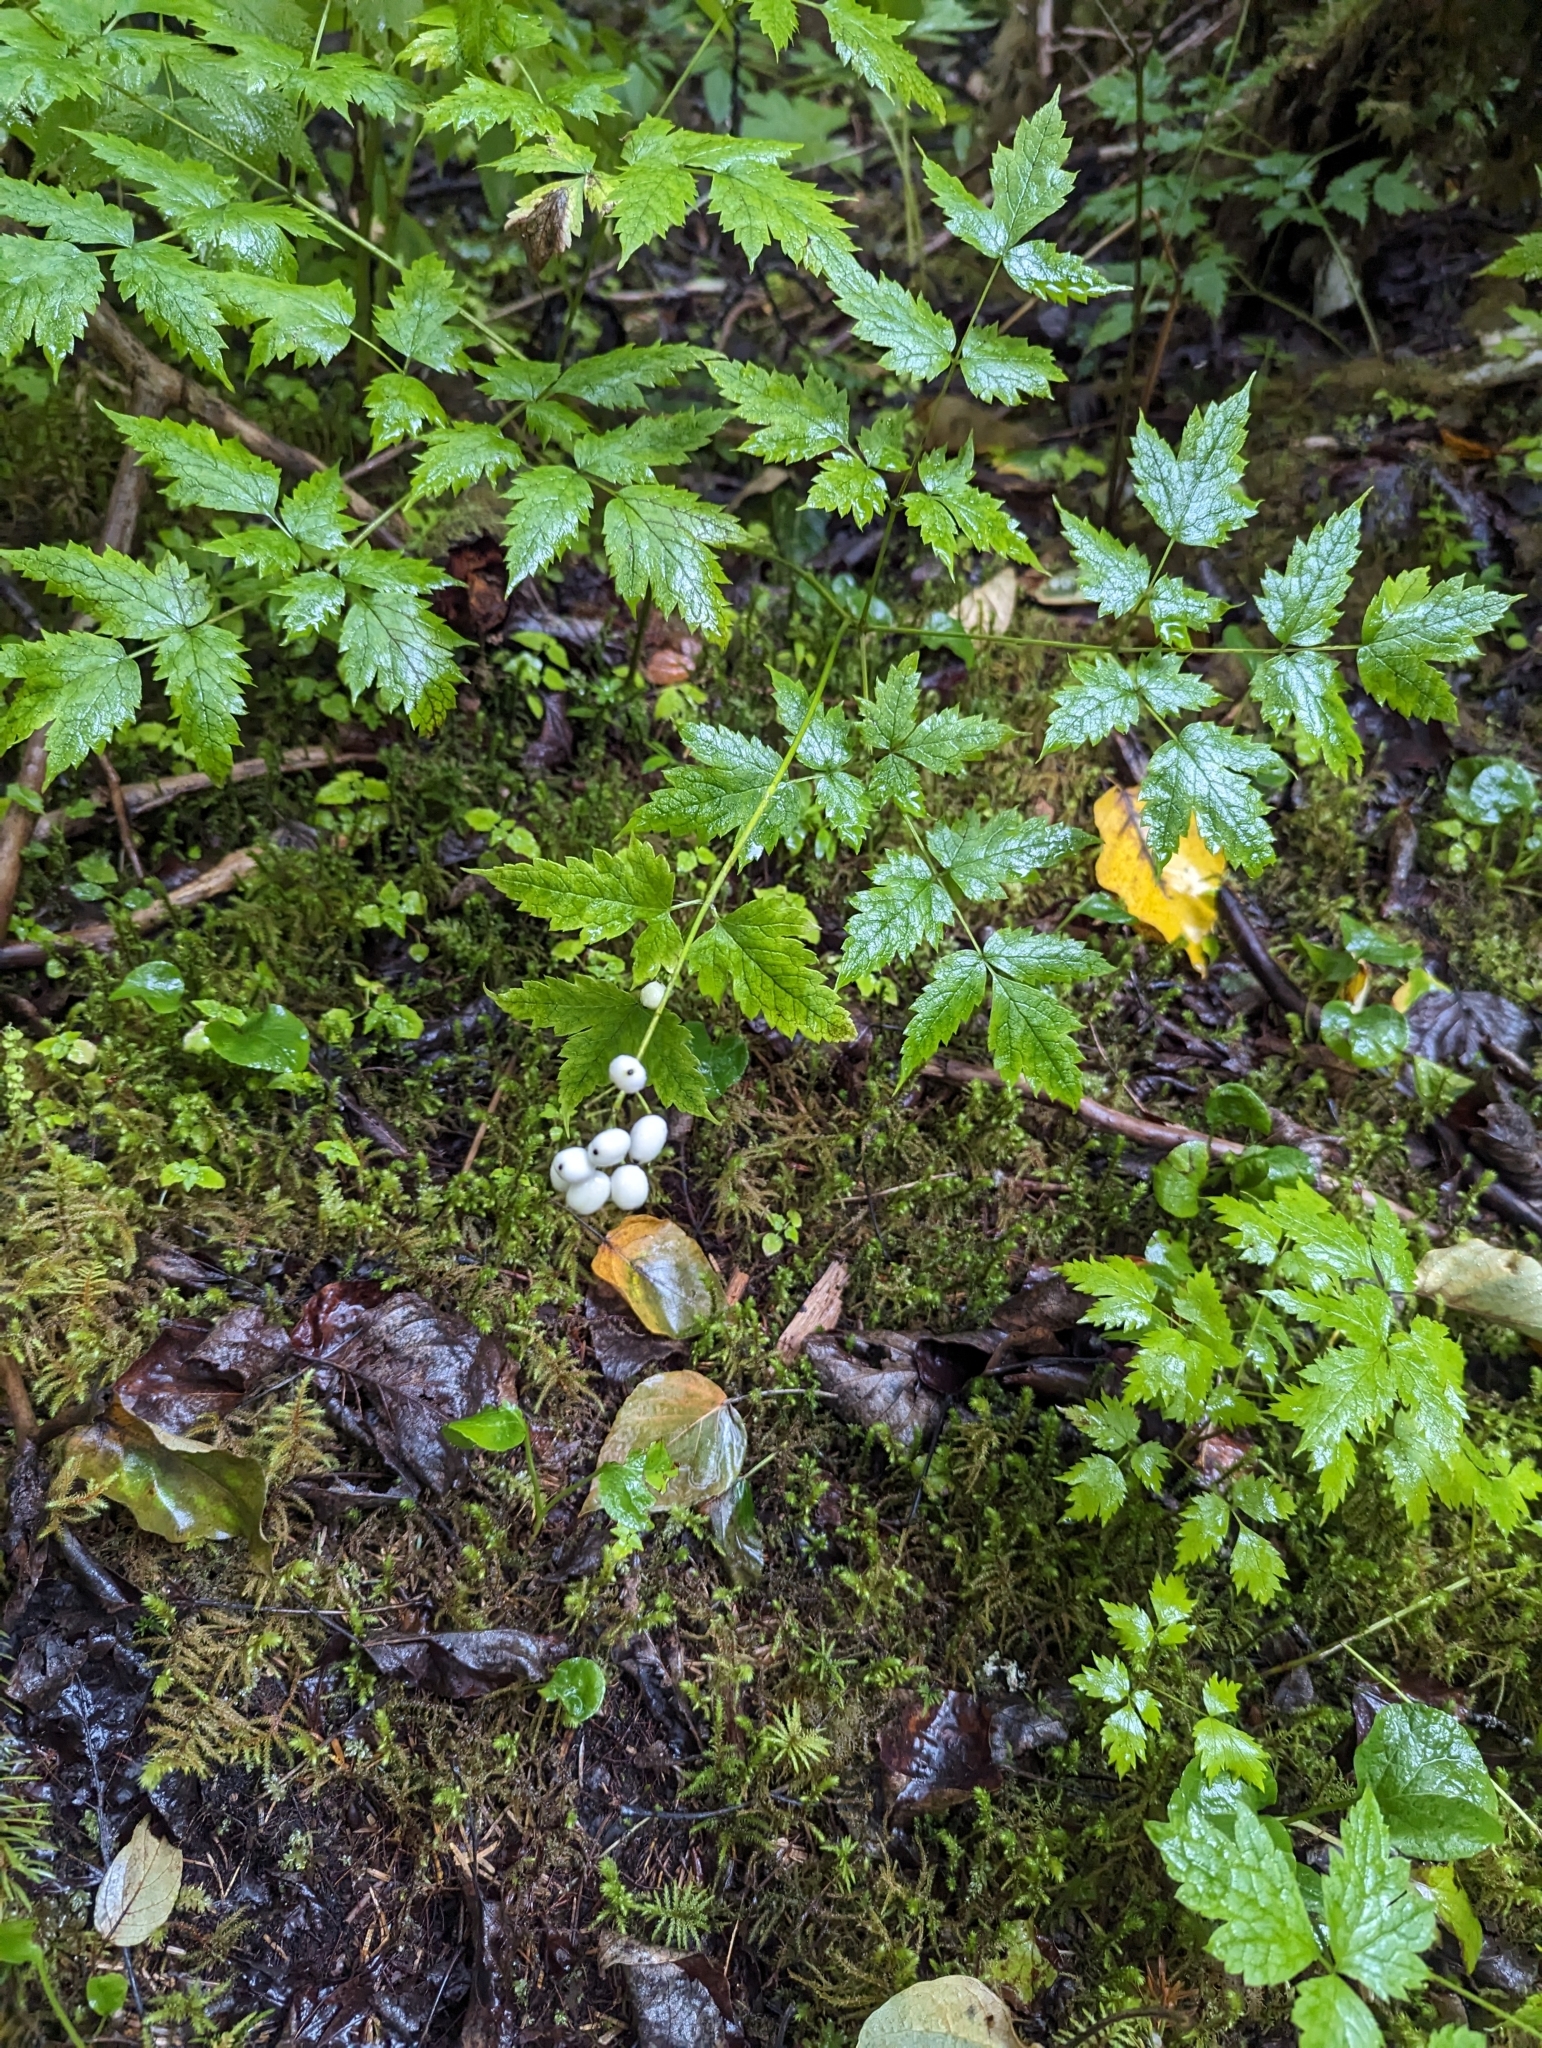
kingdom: Plantae
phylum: Tracheophyta
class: Magnoliopsida
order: Ranunculales
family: Ranunculaceae
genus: Actaea
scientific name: Actaea rubra
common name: Red baneberry
